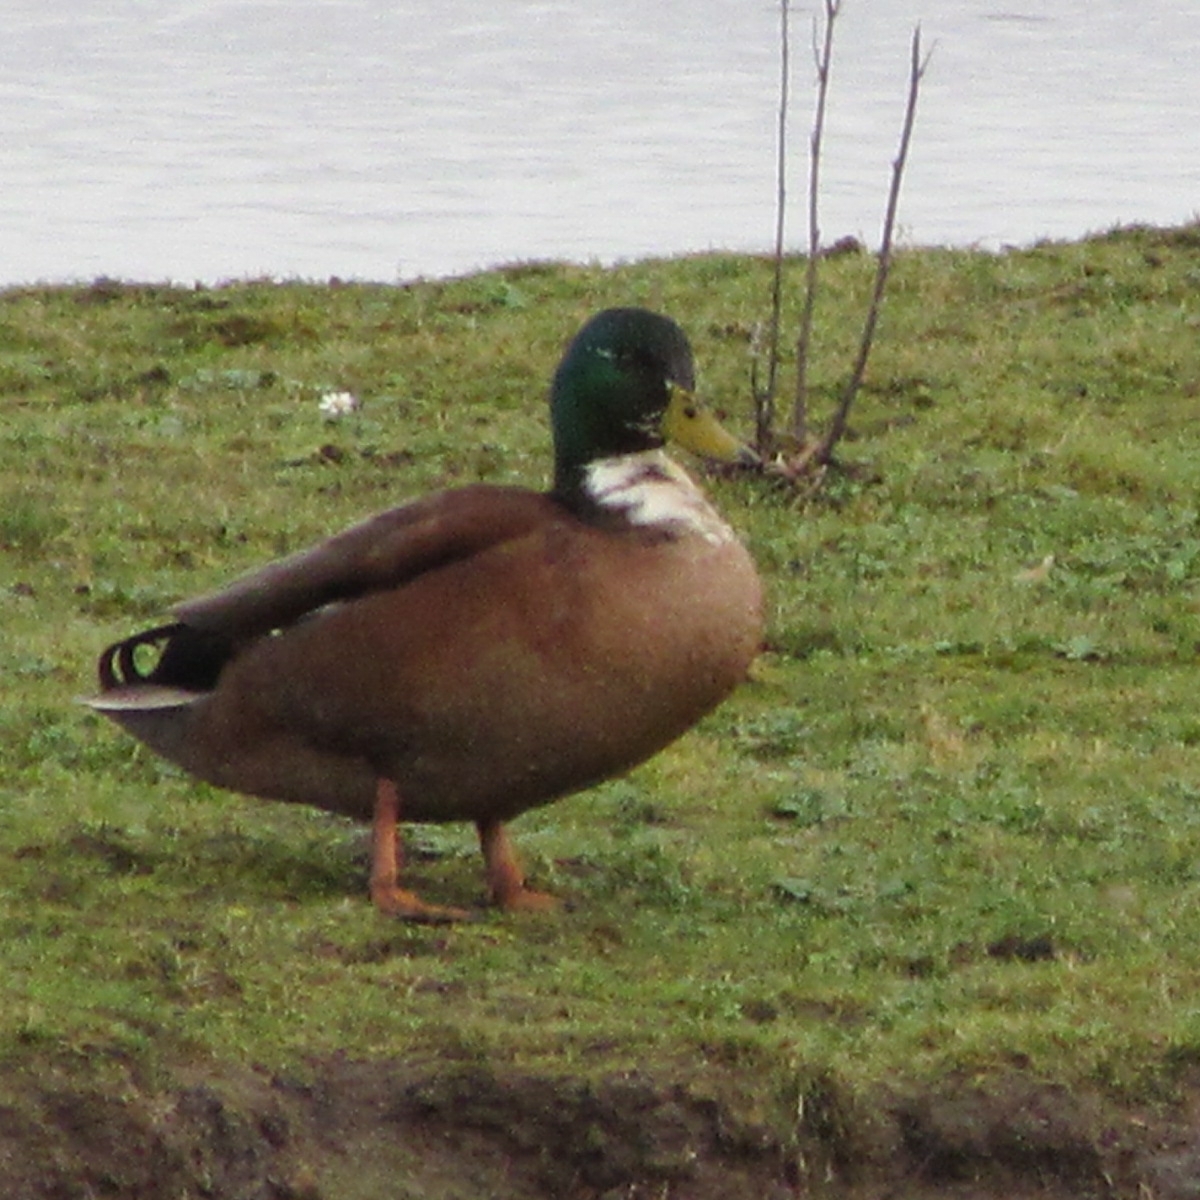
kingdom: Animalia
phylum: Chordata
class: Aves
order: Anseriformes
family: Anatidae
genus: Anas
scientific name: Anas platyrhynchos
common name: Mallard
